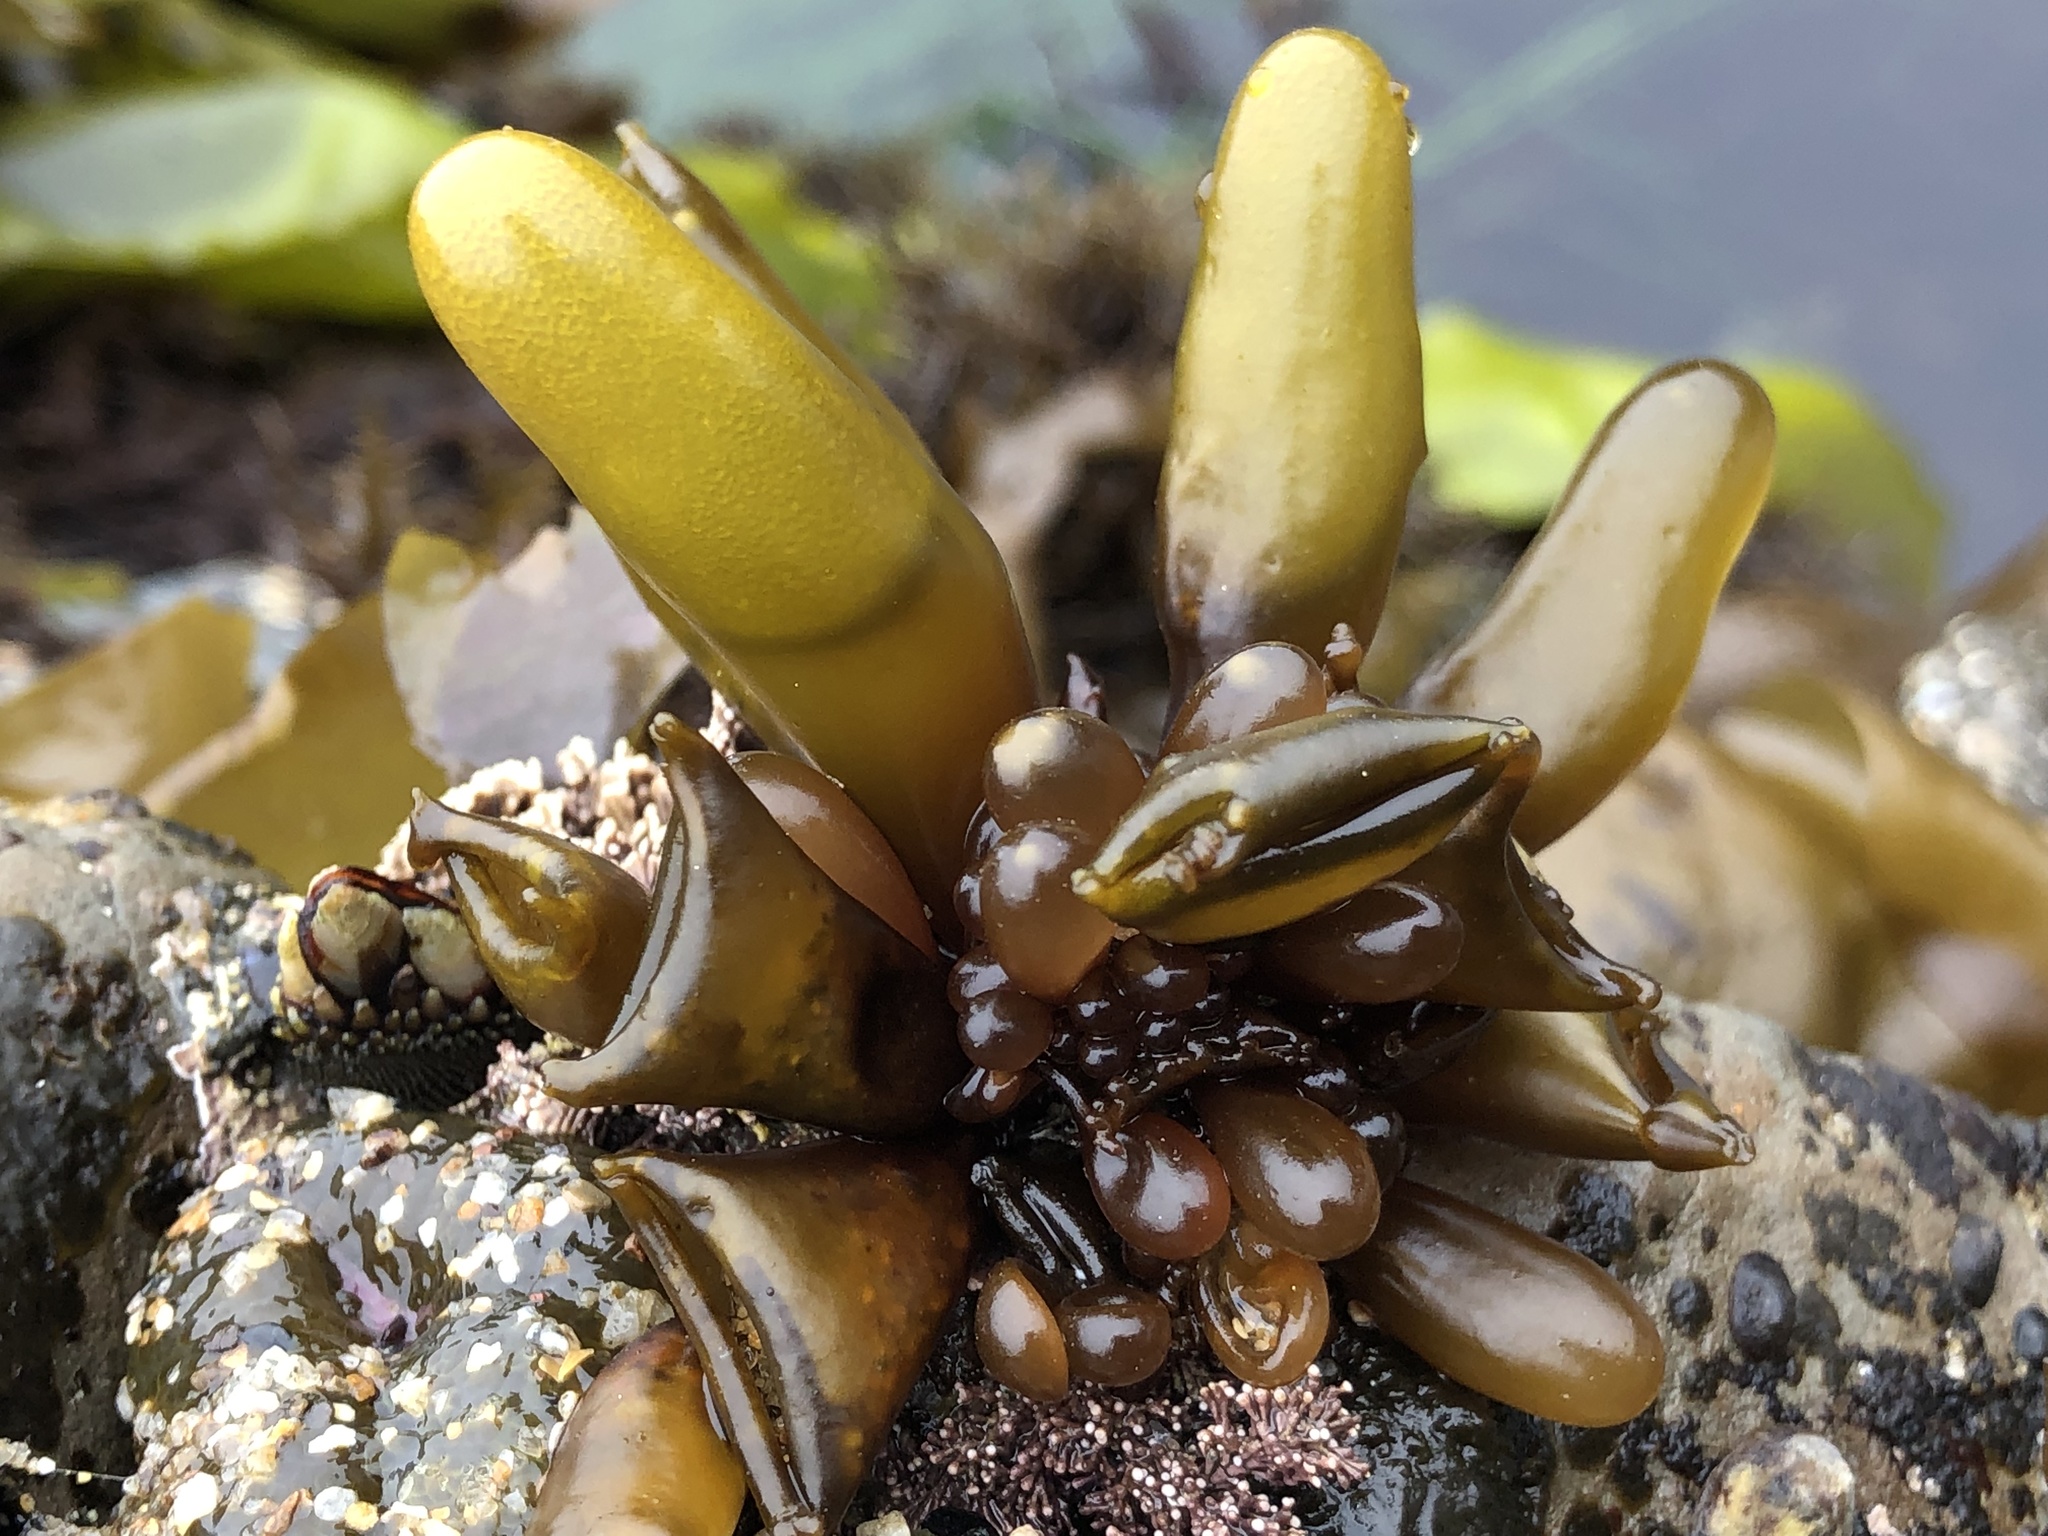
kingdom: Plantae
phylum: Rhodophyta
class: Florideophyceae
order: Palmariales
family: Palmariaceae
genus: Halosaccion
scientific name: Halosaccion glandiforme
